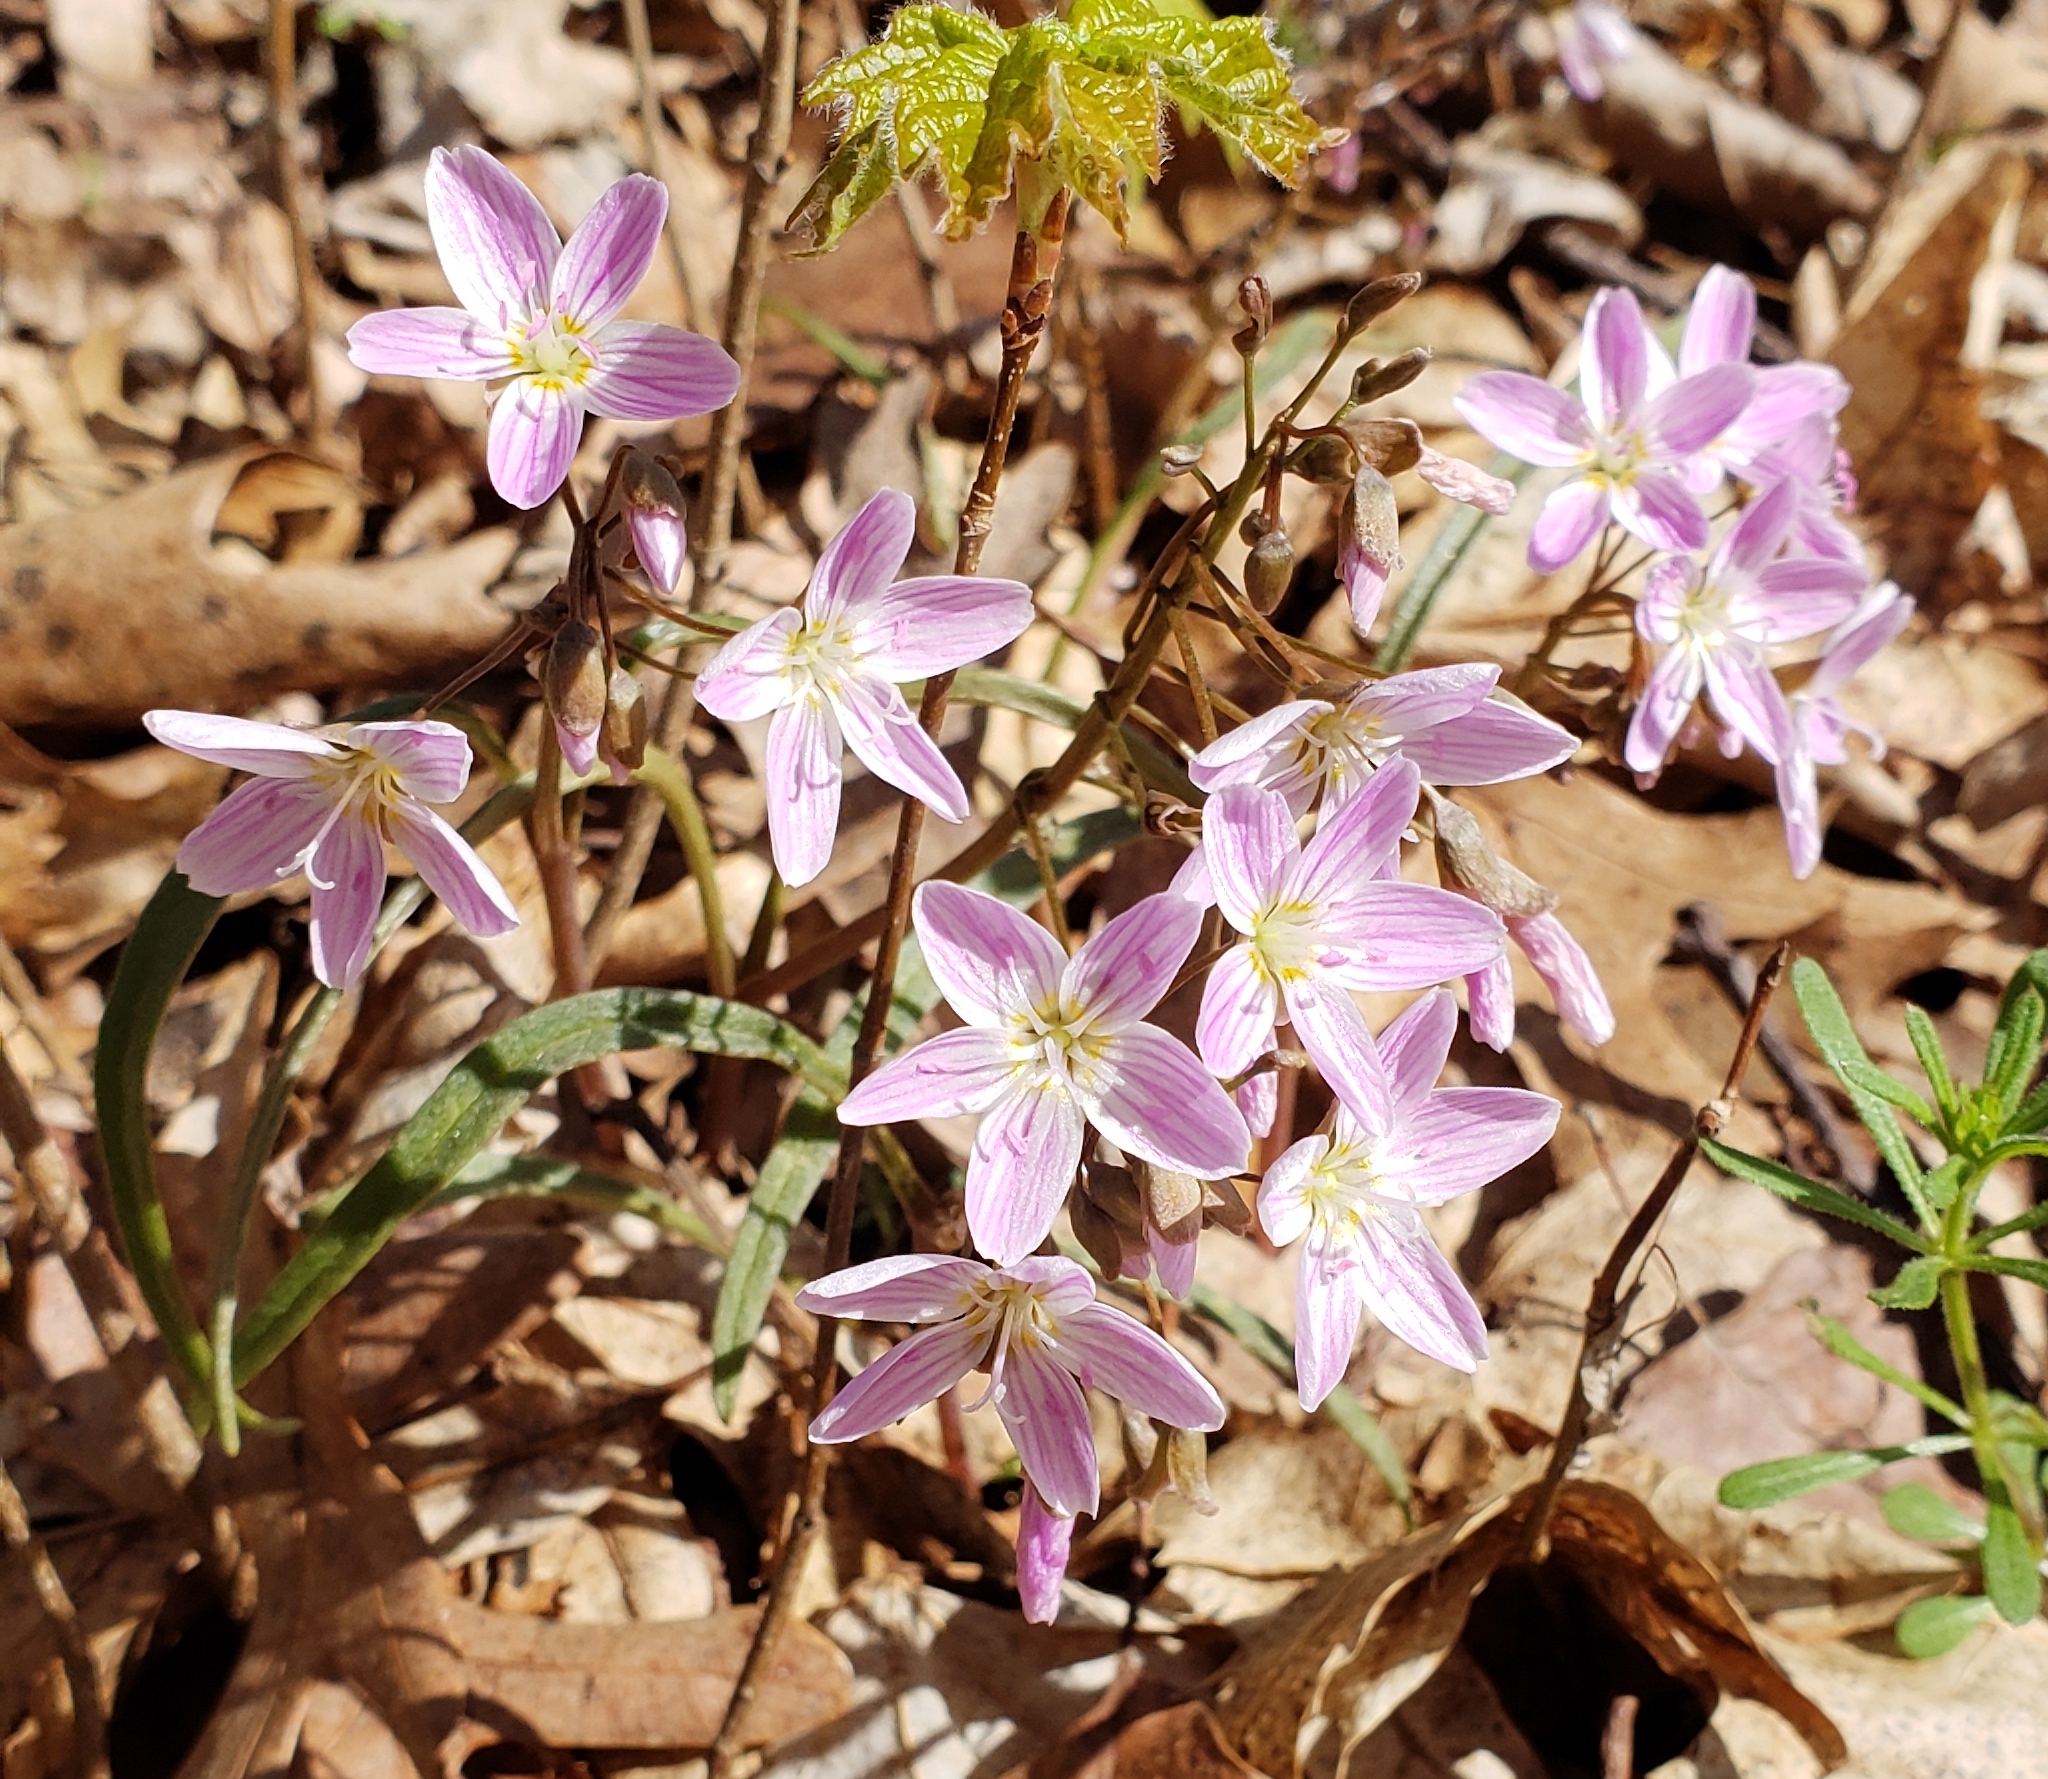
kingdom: Plantae
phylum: Tracheophyta
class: Magnoliopsida
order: Caryophyllales
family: Montiaceae
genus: Claytonia
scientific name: Claytonia virginica
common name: Virginia springbeauty
